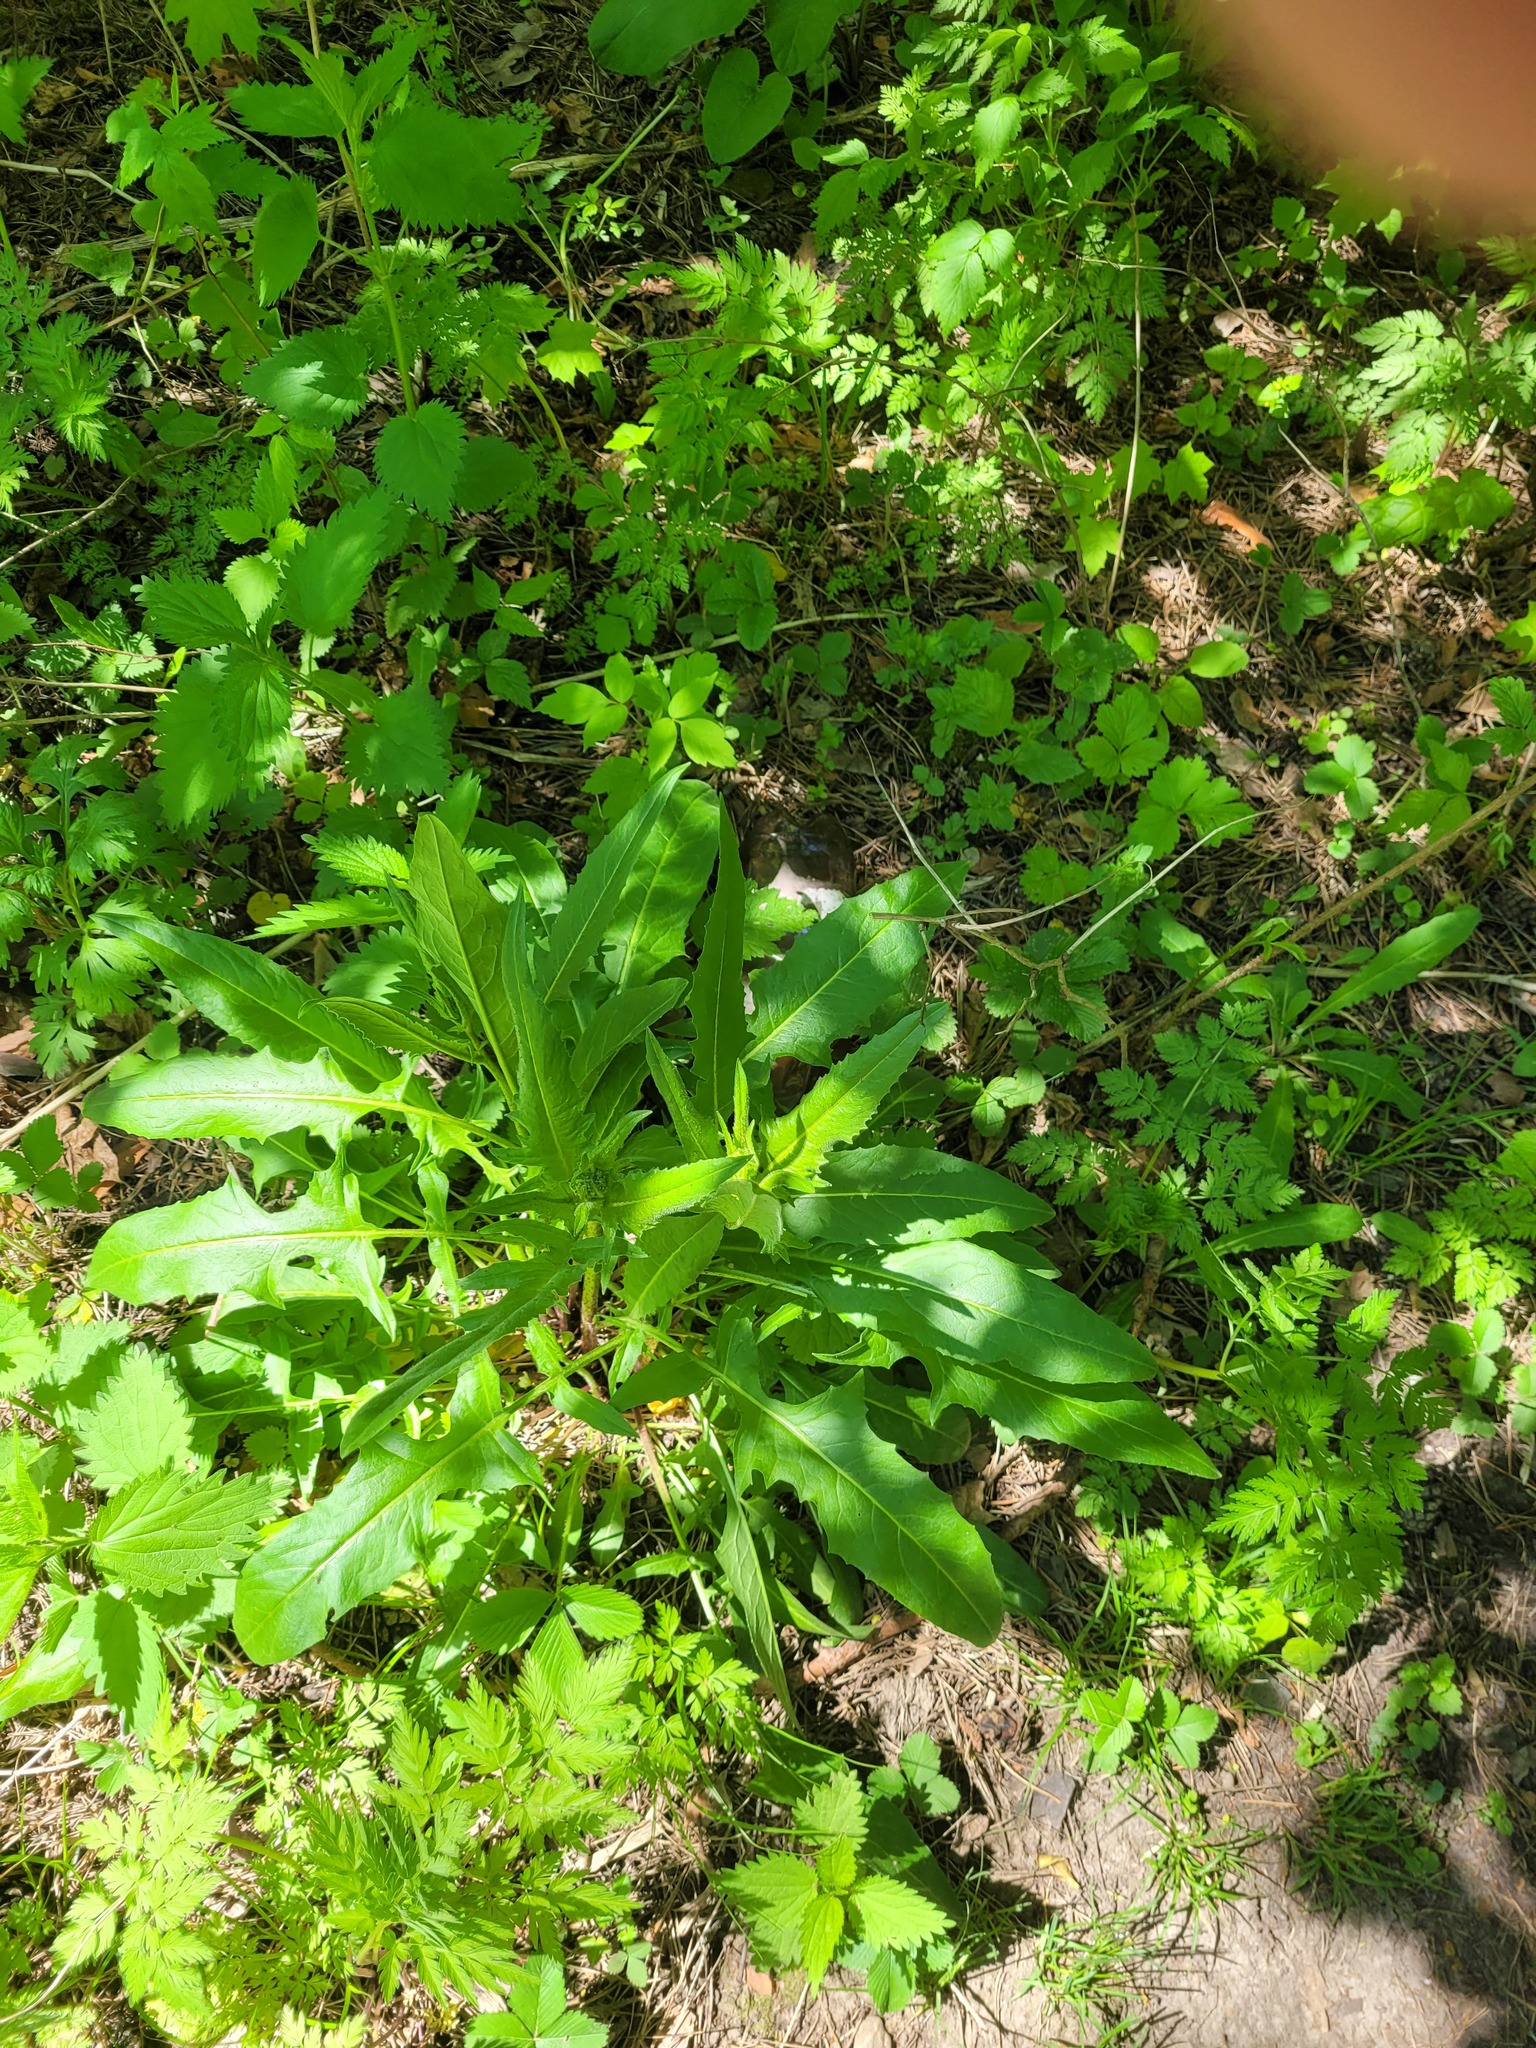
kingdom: Plantae
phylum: Tracheophyta
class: Magnoliopsida
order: Brassicales
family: Brassicaceae
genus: Bunias
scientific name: Bunias orientalis
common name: Warty-cabbage
